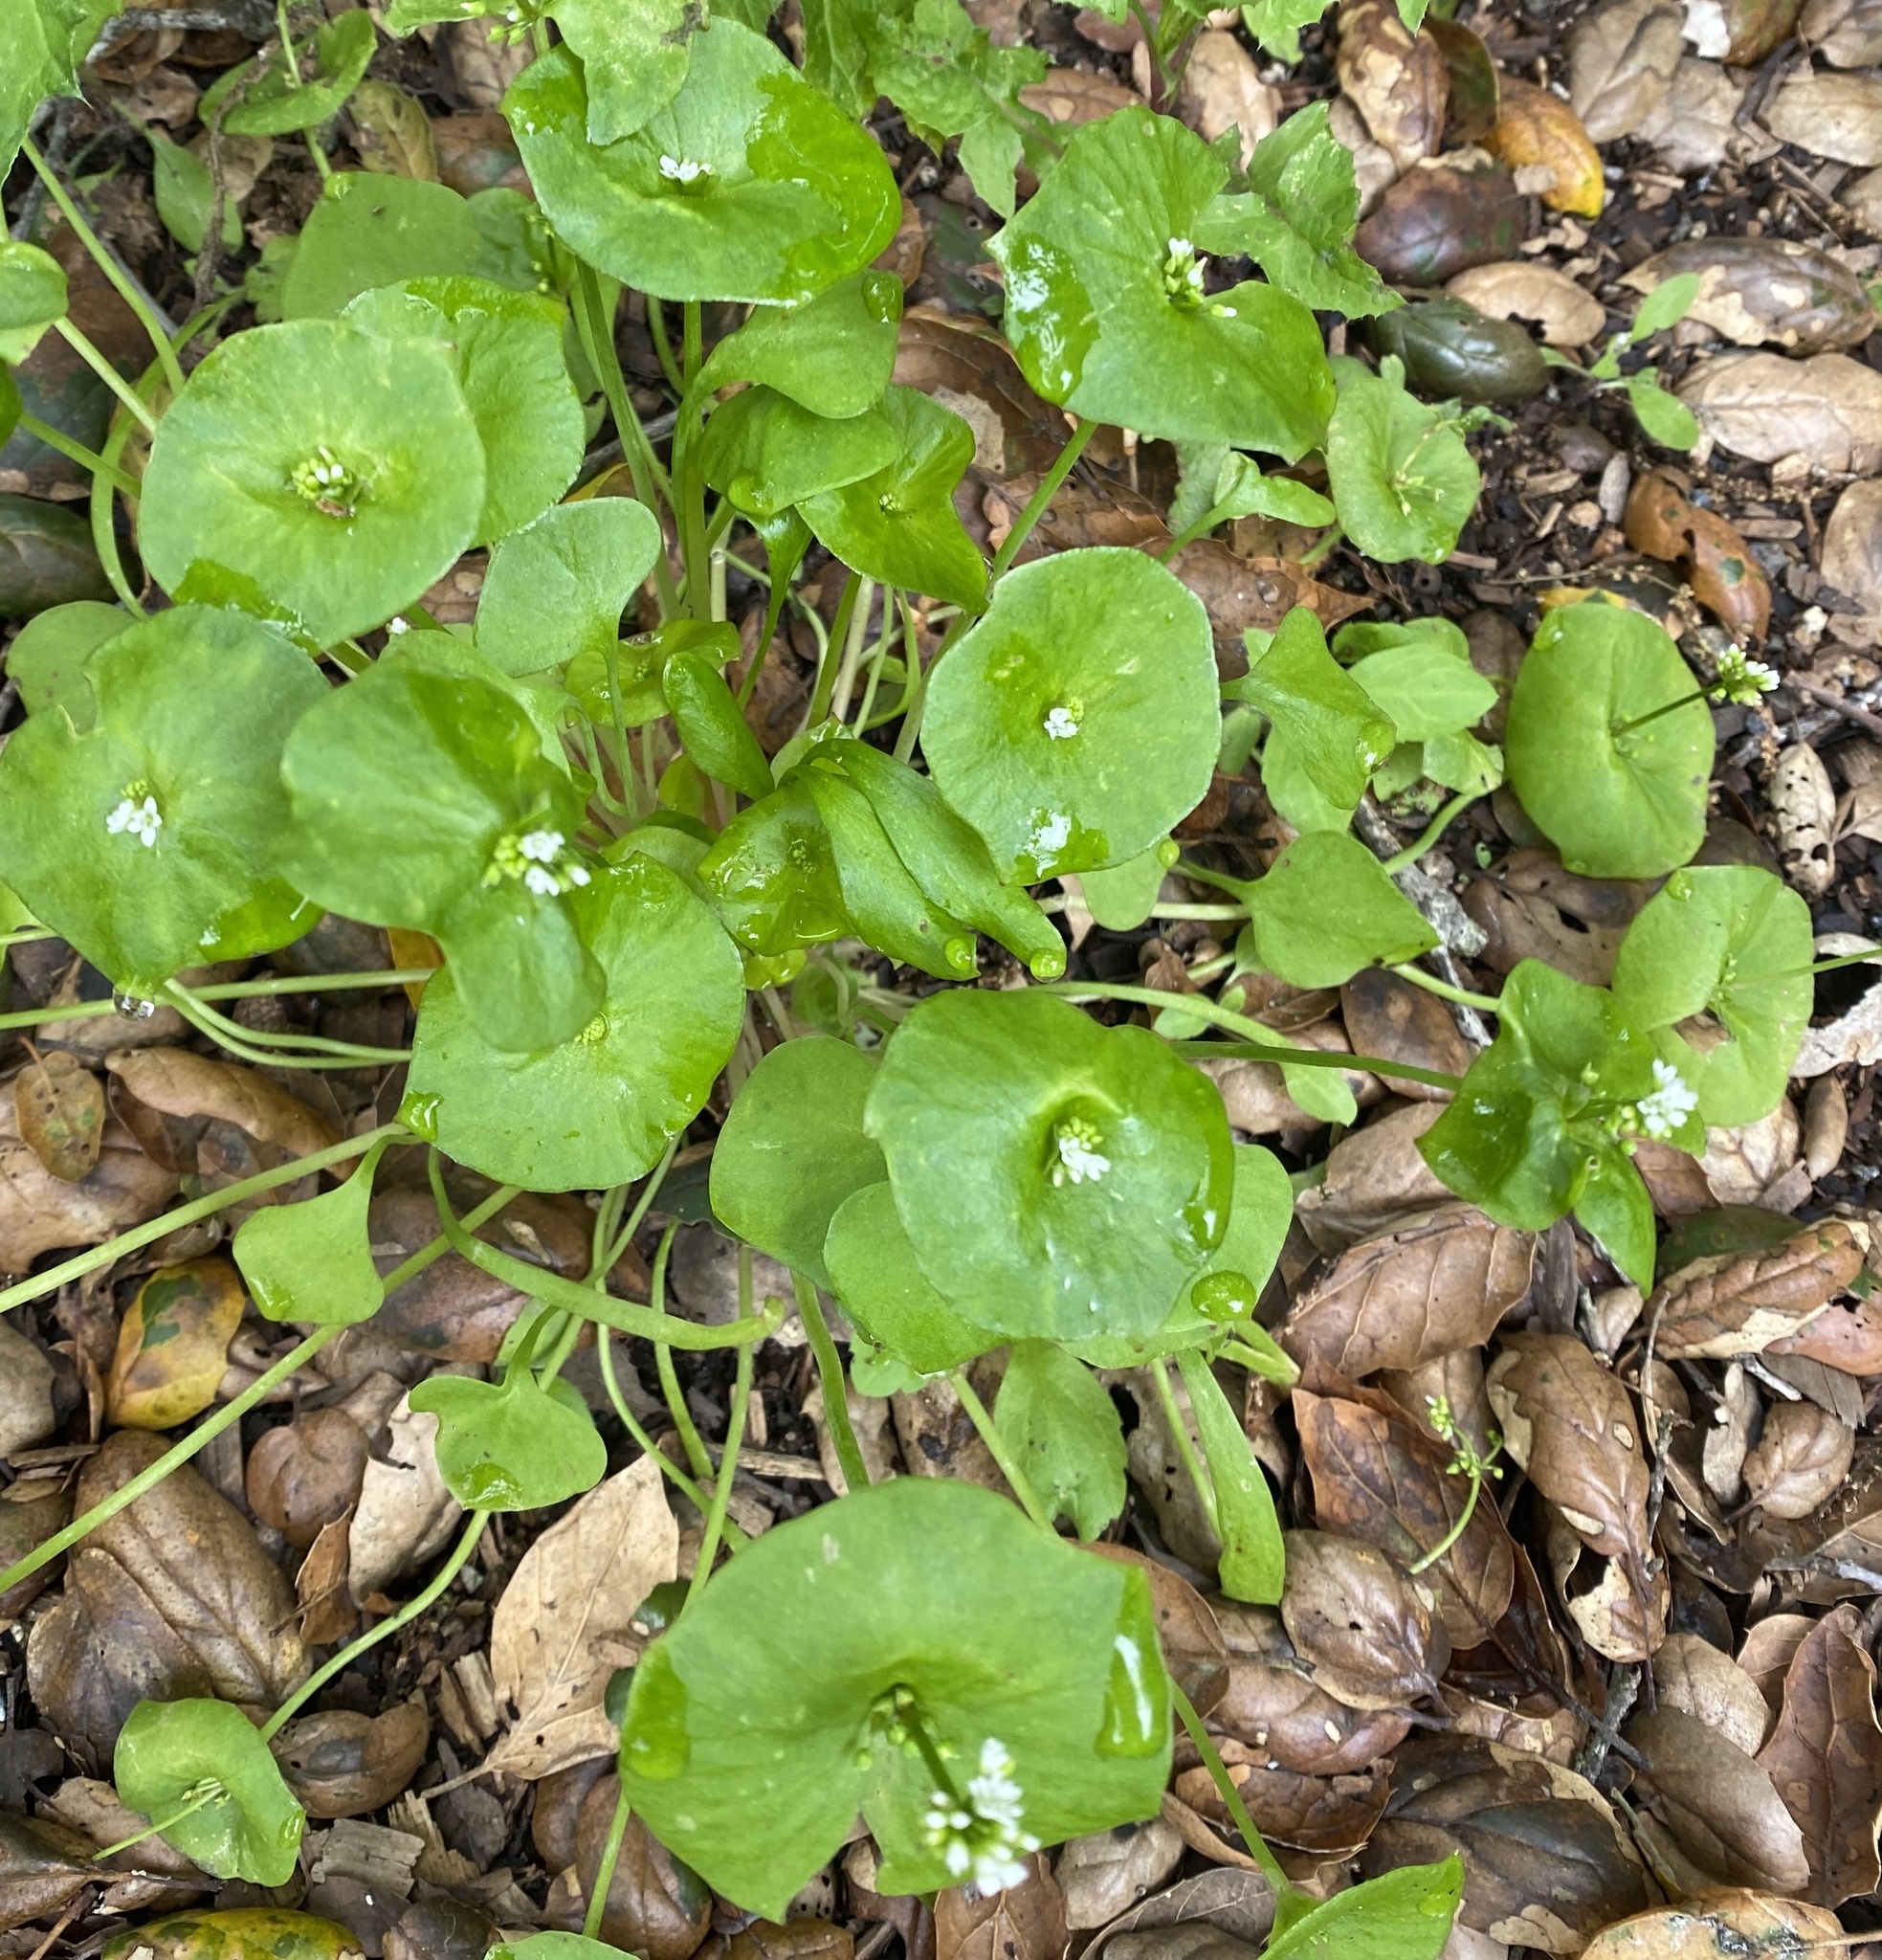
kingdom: Plantae
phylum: Tracheophyta
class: Magnoliopsida
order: Caryophyllales
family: Montiaceae
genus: Claytonia
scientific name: Claytonia perfoliata
